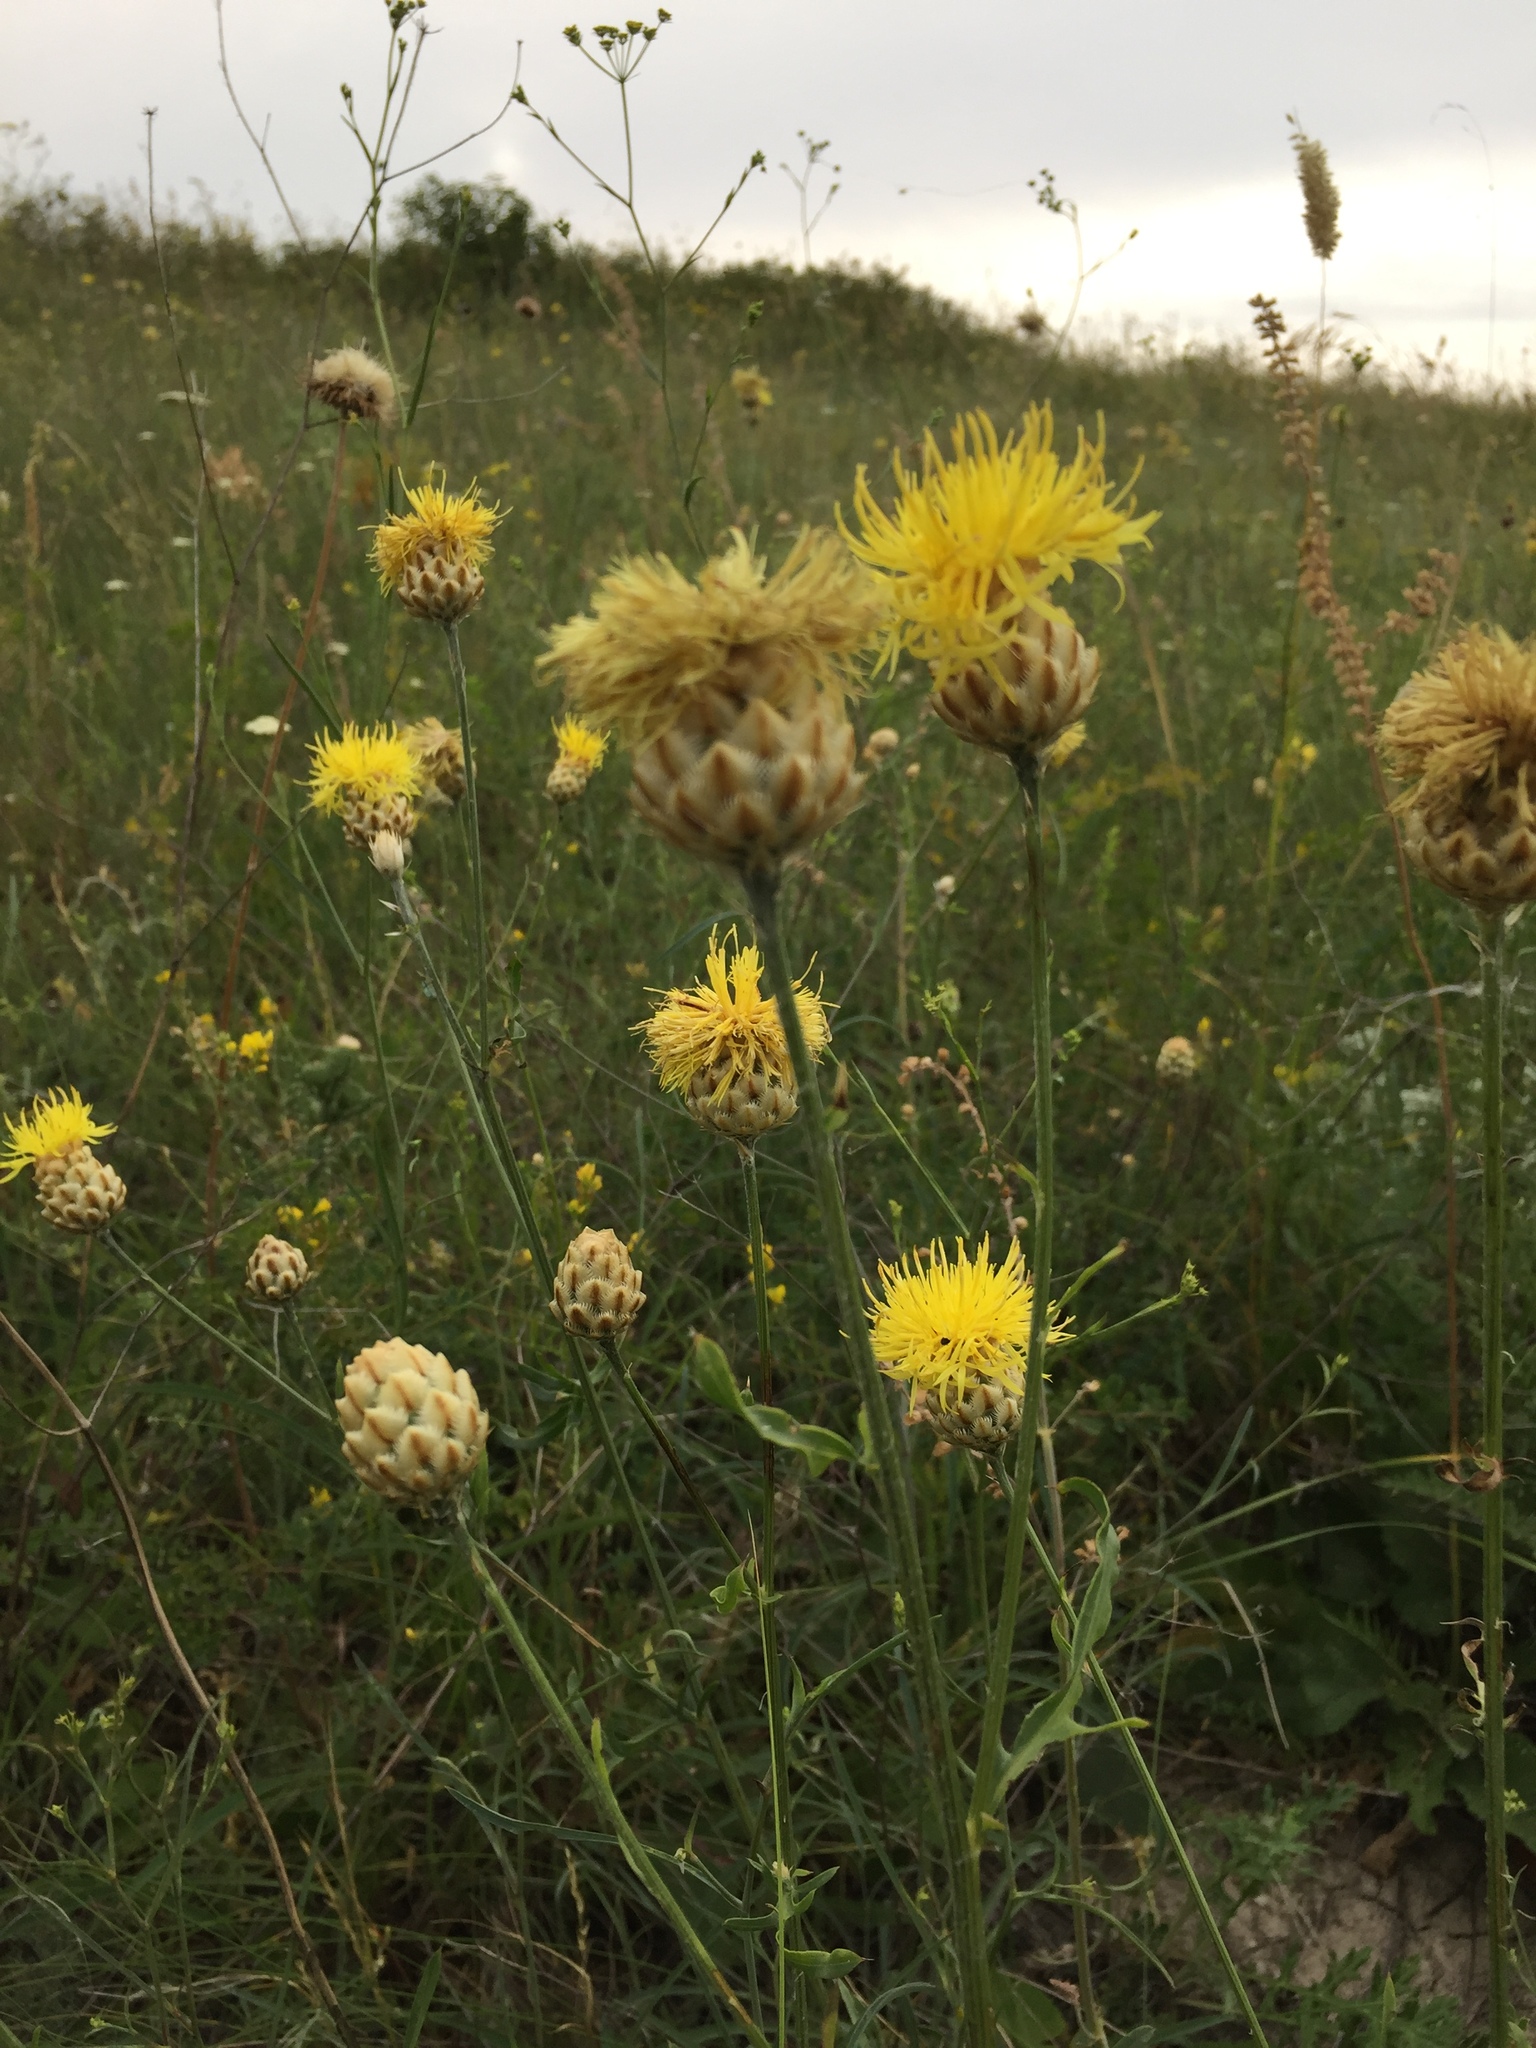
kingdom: Plantae
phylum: Tracheophyta
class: Magnoliopsida
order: Asterales
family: Asteraceae
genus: Centaurea
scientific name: Centaurea orientalis
